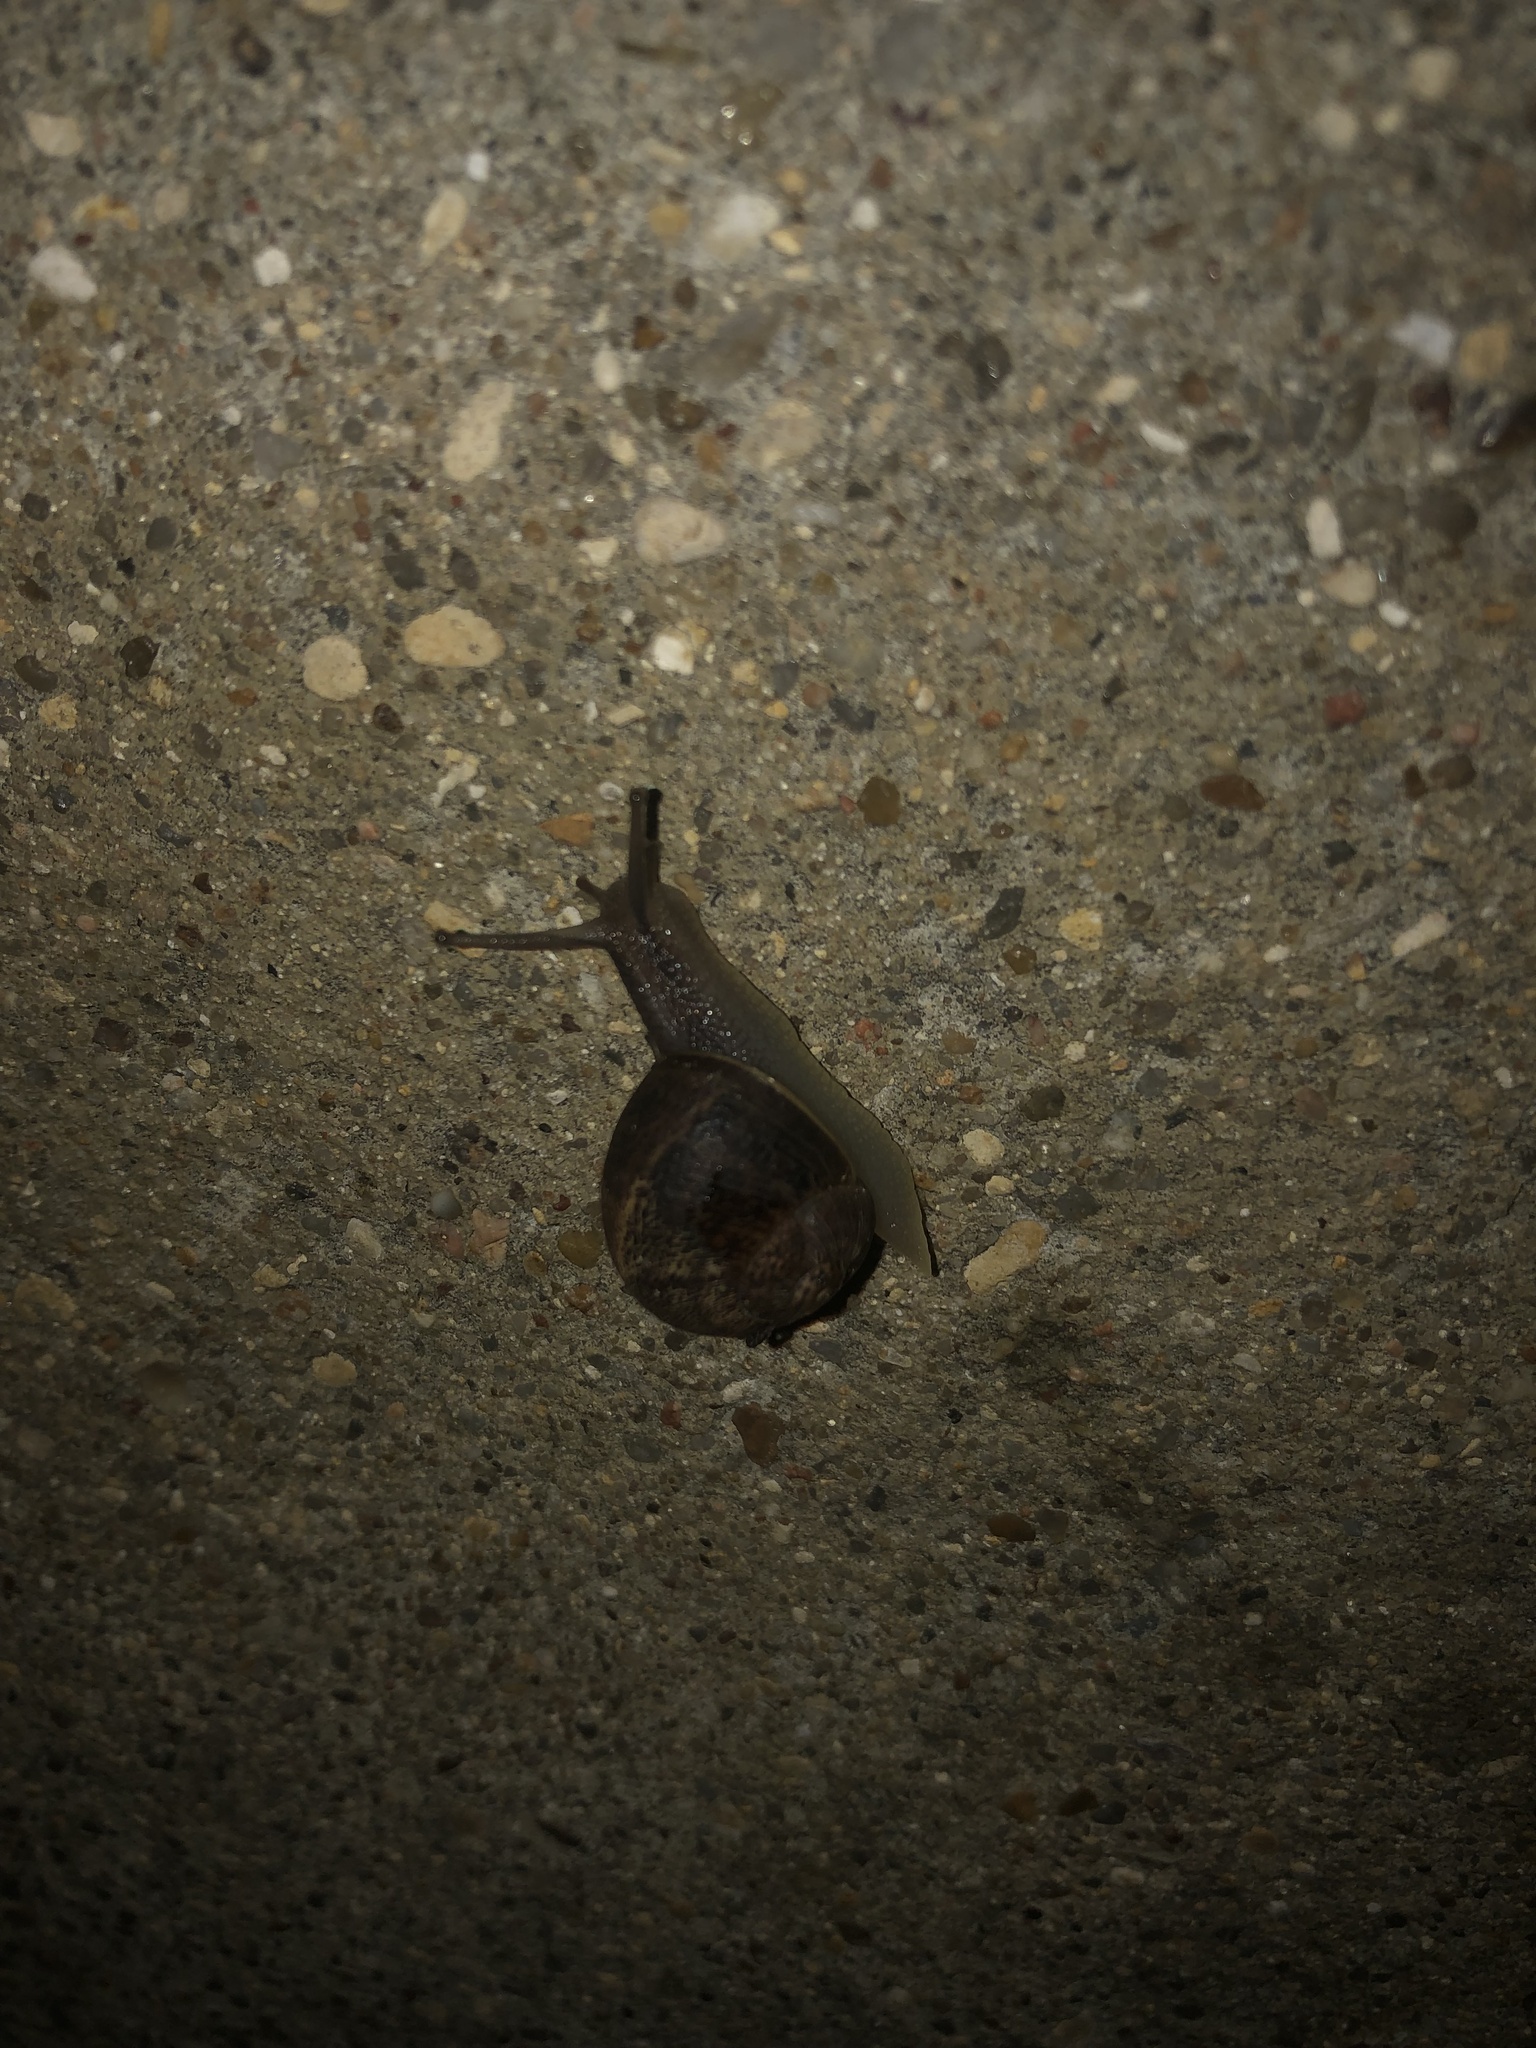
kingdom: Animalia
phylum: Mollusca
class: Gastropoda
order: Stylommatophora
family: Helicidae
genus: Cornu
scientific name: Cornu aspersum
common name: Brown garden snail
